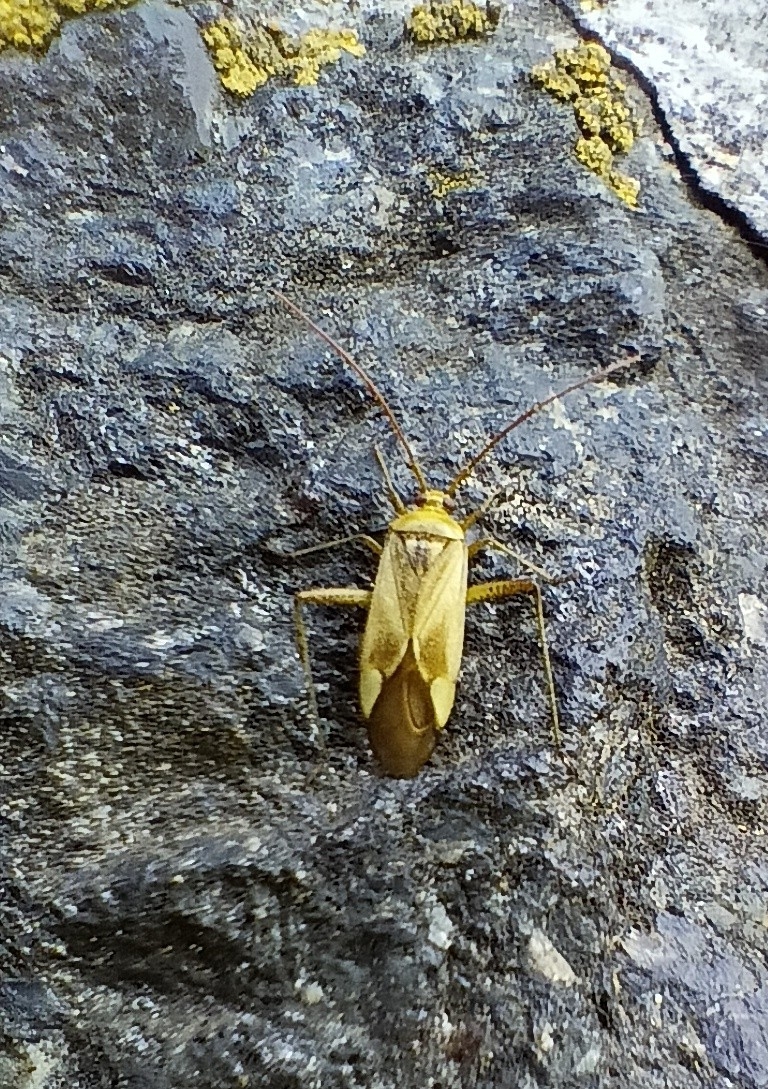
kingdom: Animalia
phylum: Arthropoda
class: Insecta
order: Hemiptera
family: Miridae
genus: Adelphocoris
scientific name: Adelphocoris lineolatus
